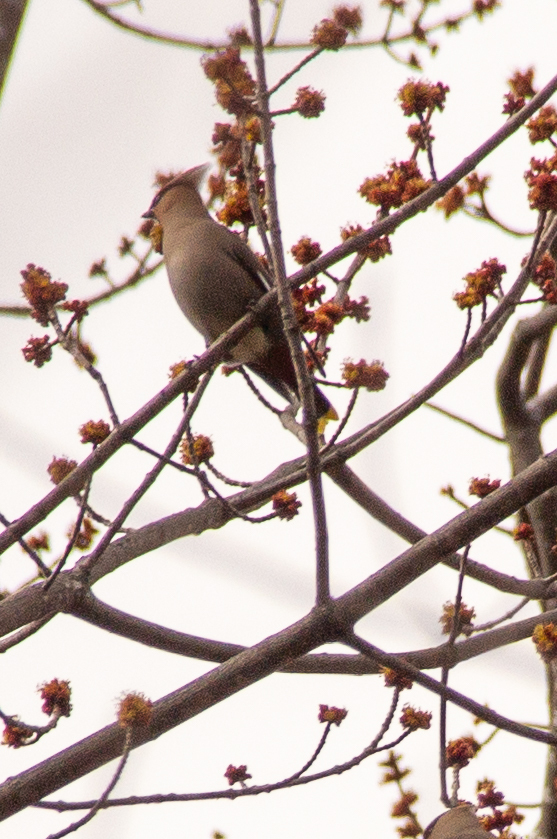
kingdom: Animalia
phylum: Chordata
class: Aves
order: Passeriformes
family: Bombycillidae
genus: Bombycilla
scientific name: Bombycilla garrulus
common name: Bohemian waxwing
